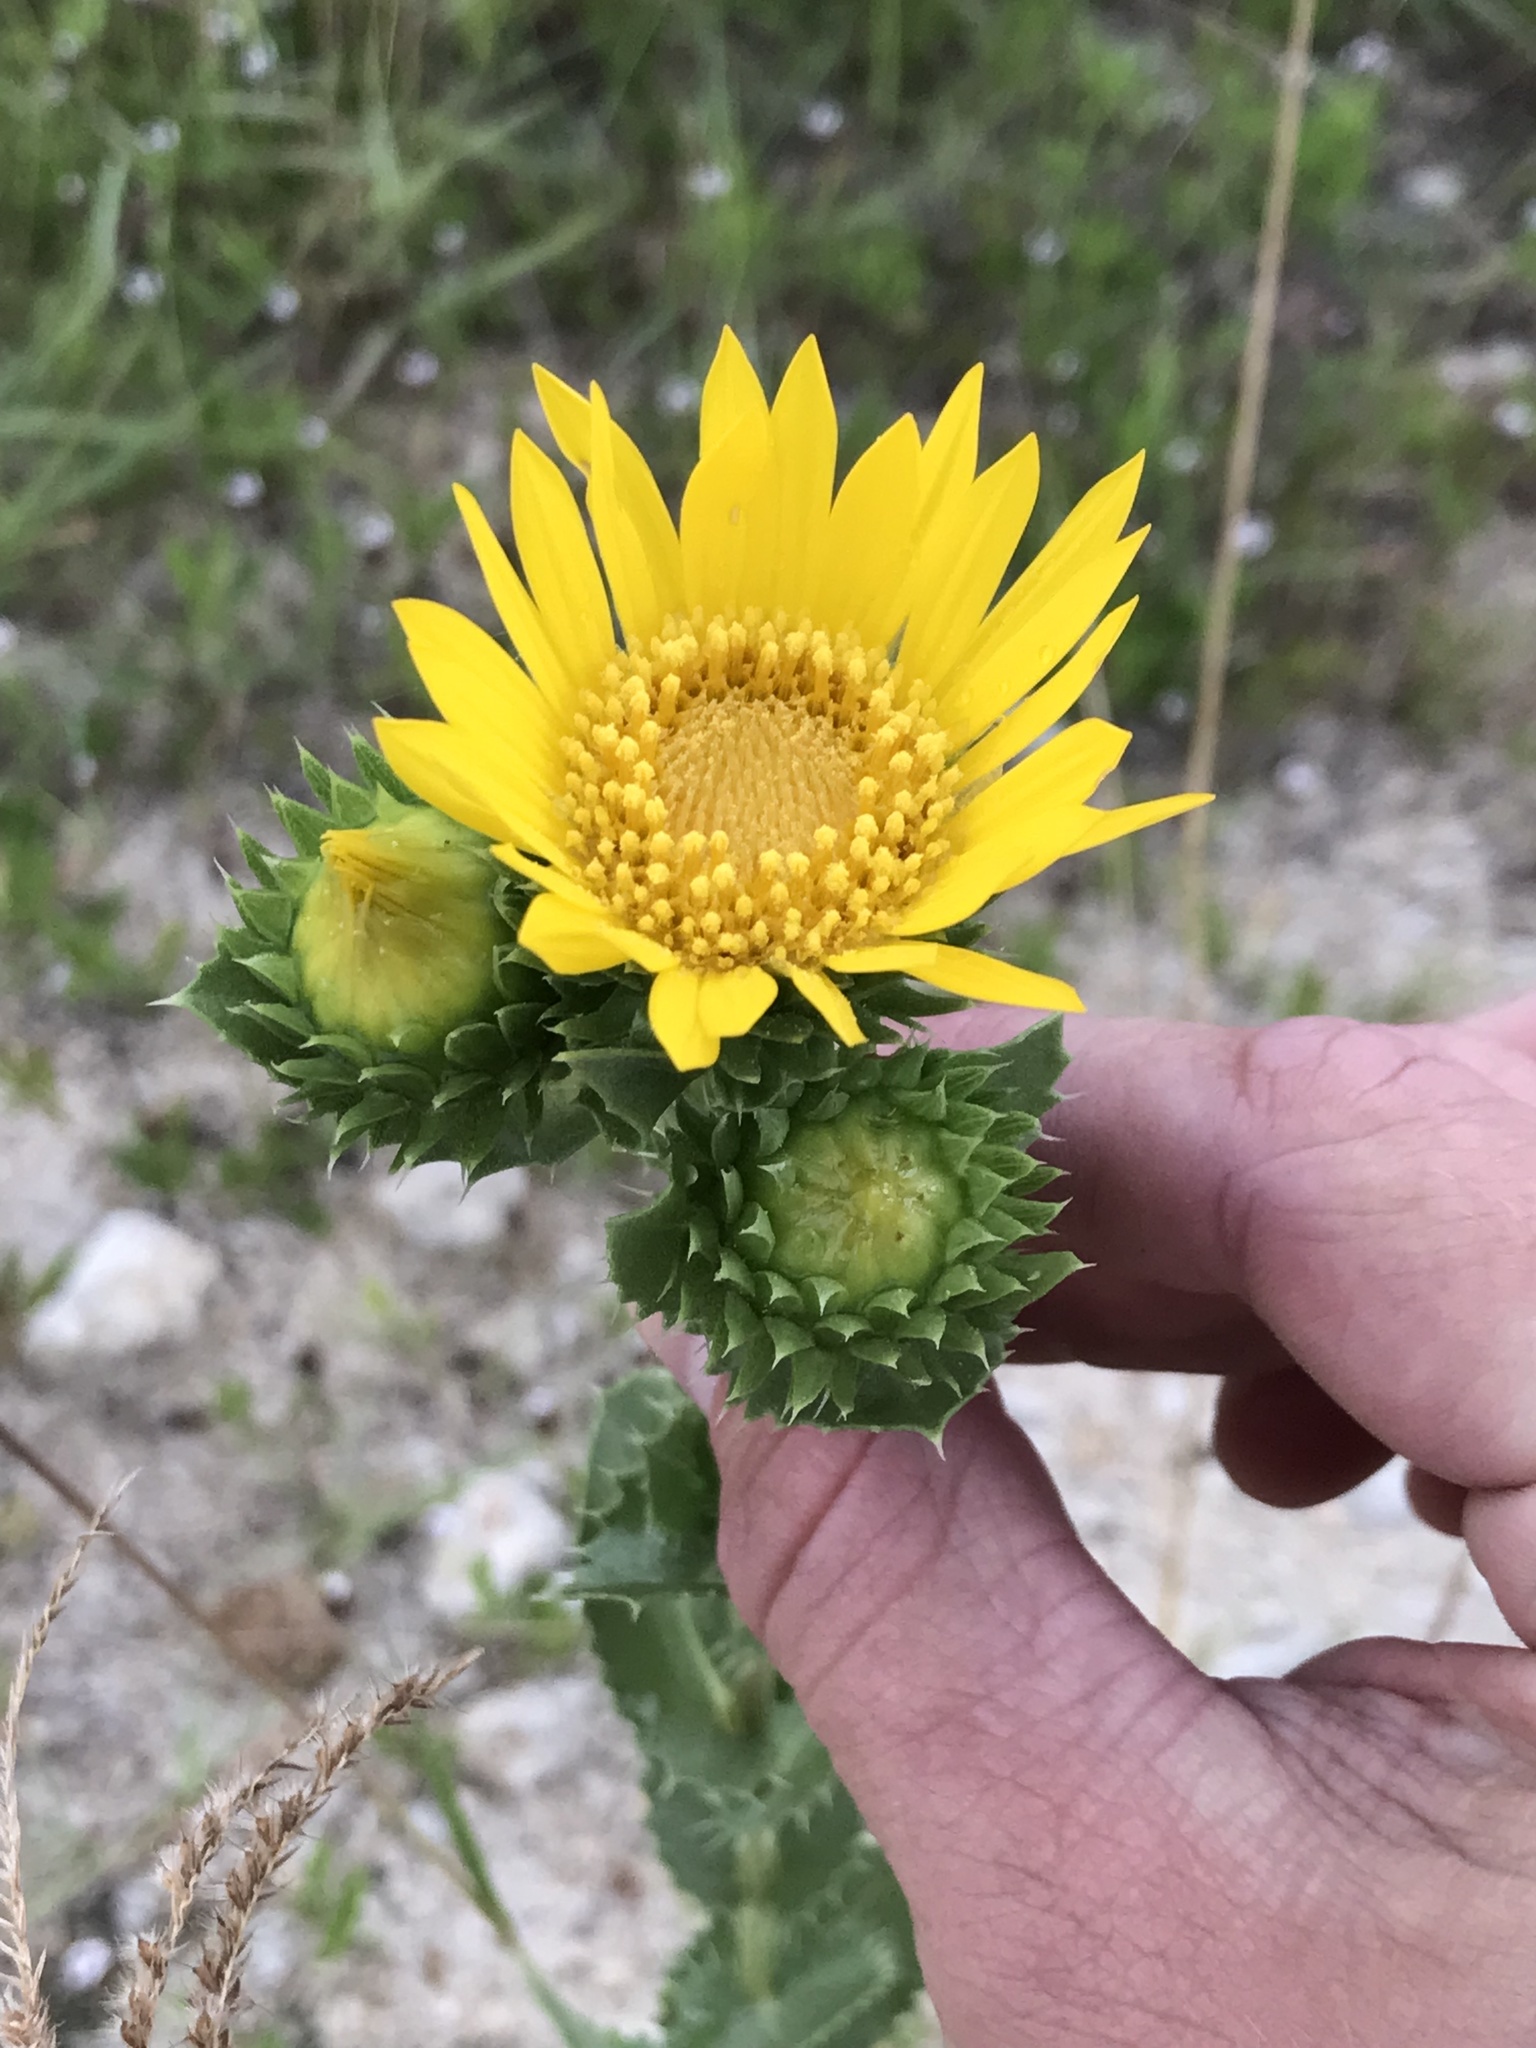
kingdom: Plantae
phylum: Tracheophyta
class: Magnoliopsida
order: Asterales
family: Asteraceae
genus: Grindelia
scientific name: Grindelia ciliata
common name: Goldenweed
